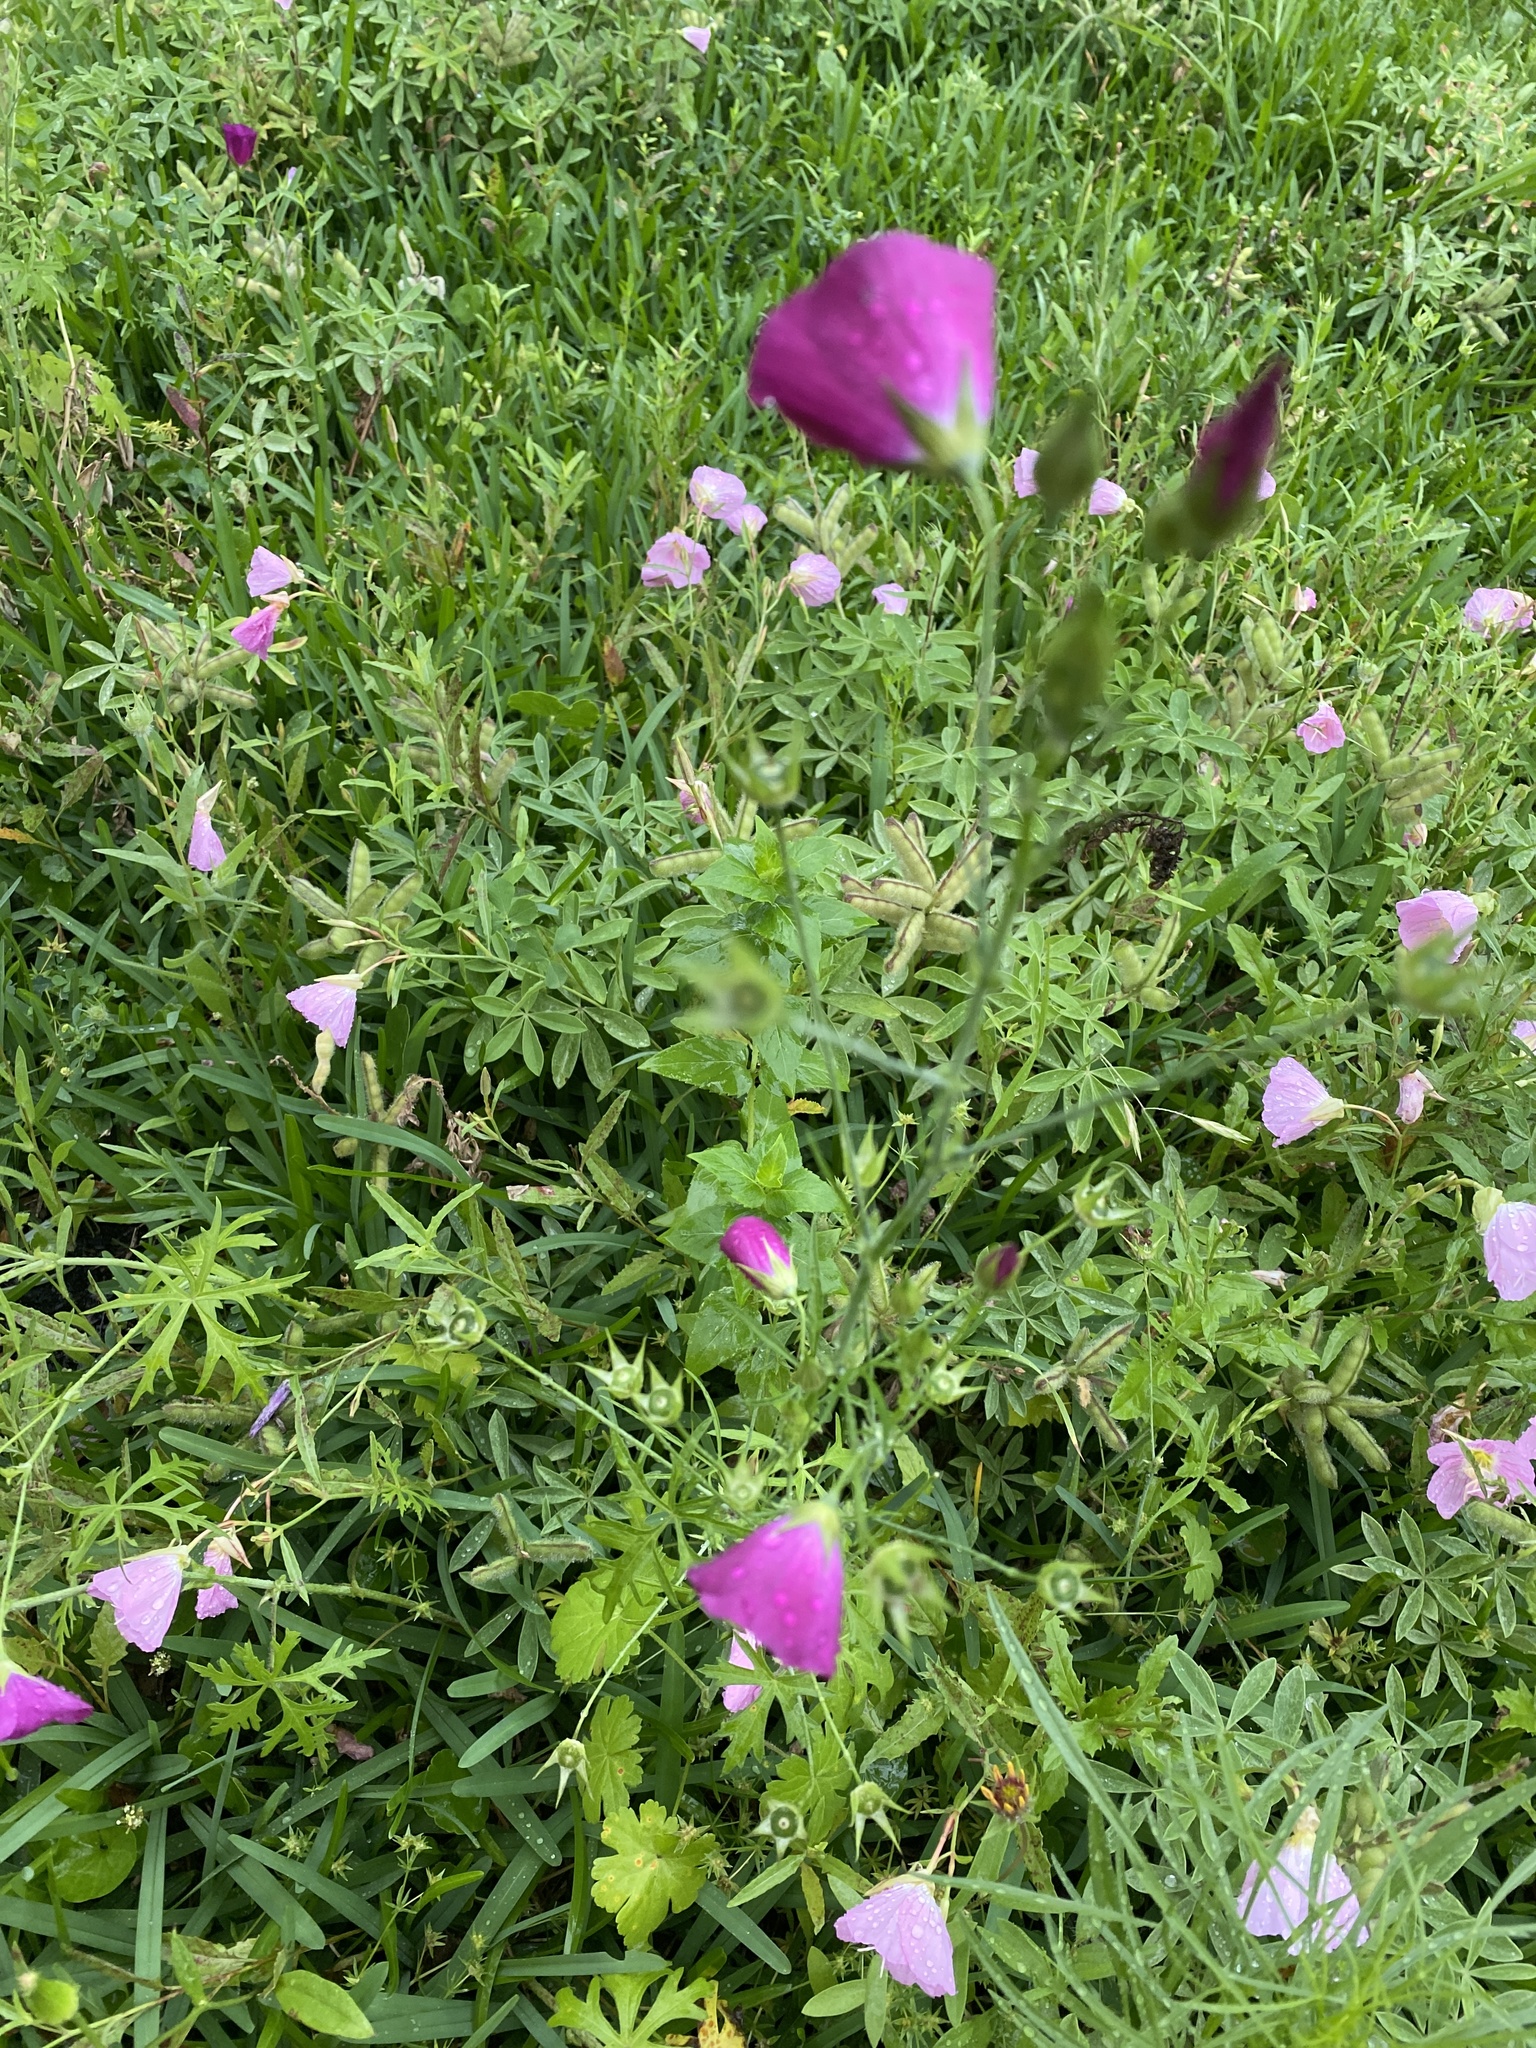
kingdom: Plantae
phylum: Tracheophyta
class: Magnoliopsida
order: Malvales
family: Malvaceae
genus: Callirhoe
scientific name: Callirhoe leiocarpa
